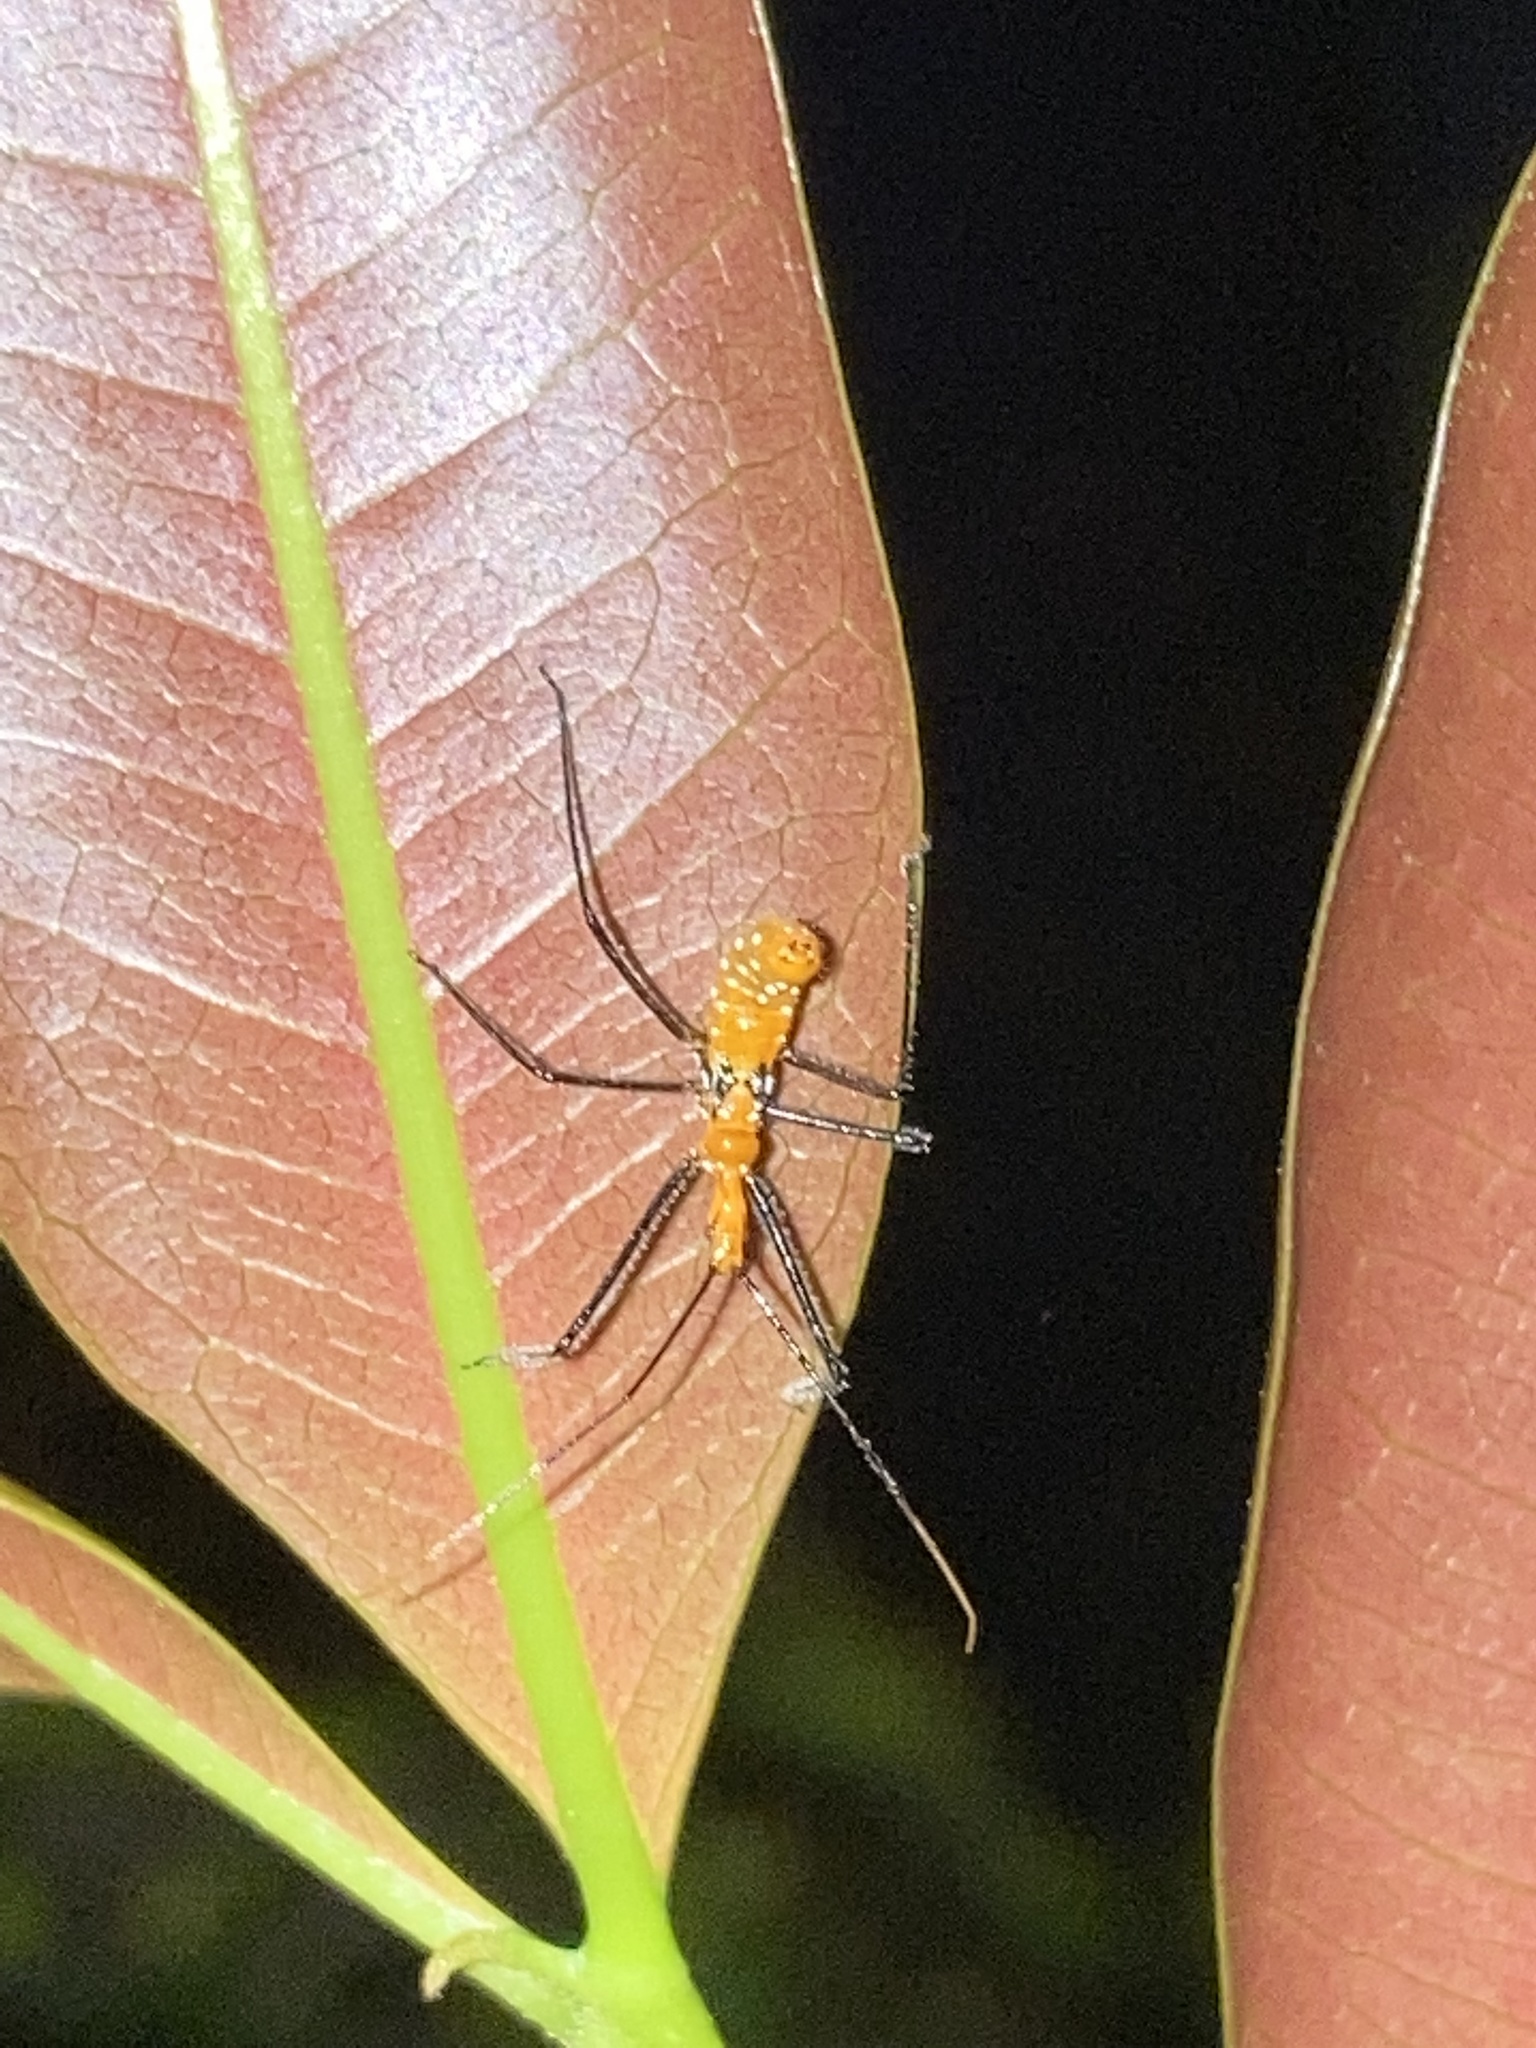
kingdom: Animalia
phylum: Arthropoda
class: Insecta
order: Hemiptera
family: Reduviidae
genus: Zelus
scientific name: Zelus longipes
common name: Milkweed assassin bug
